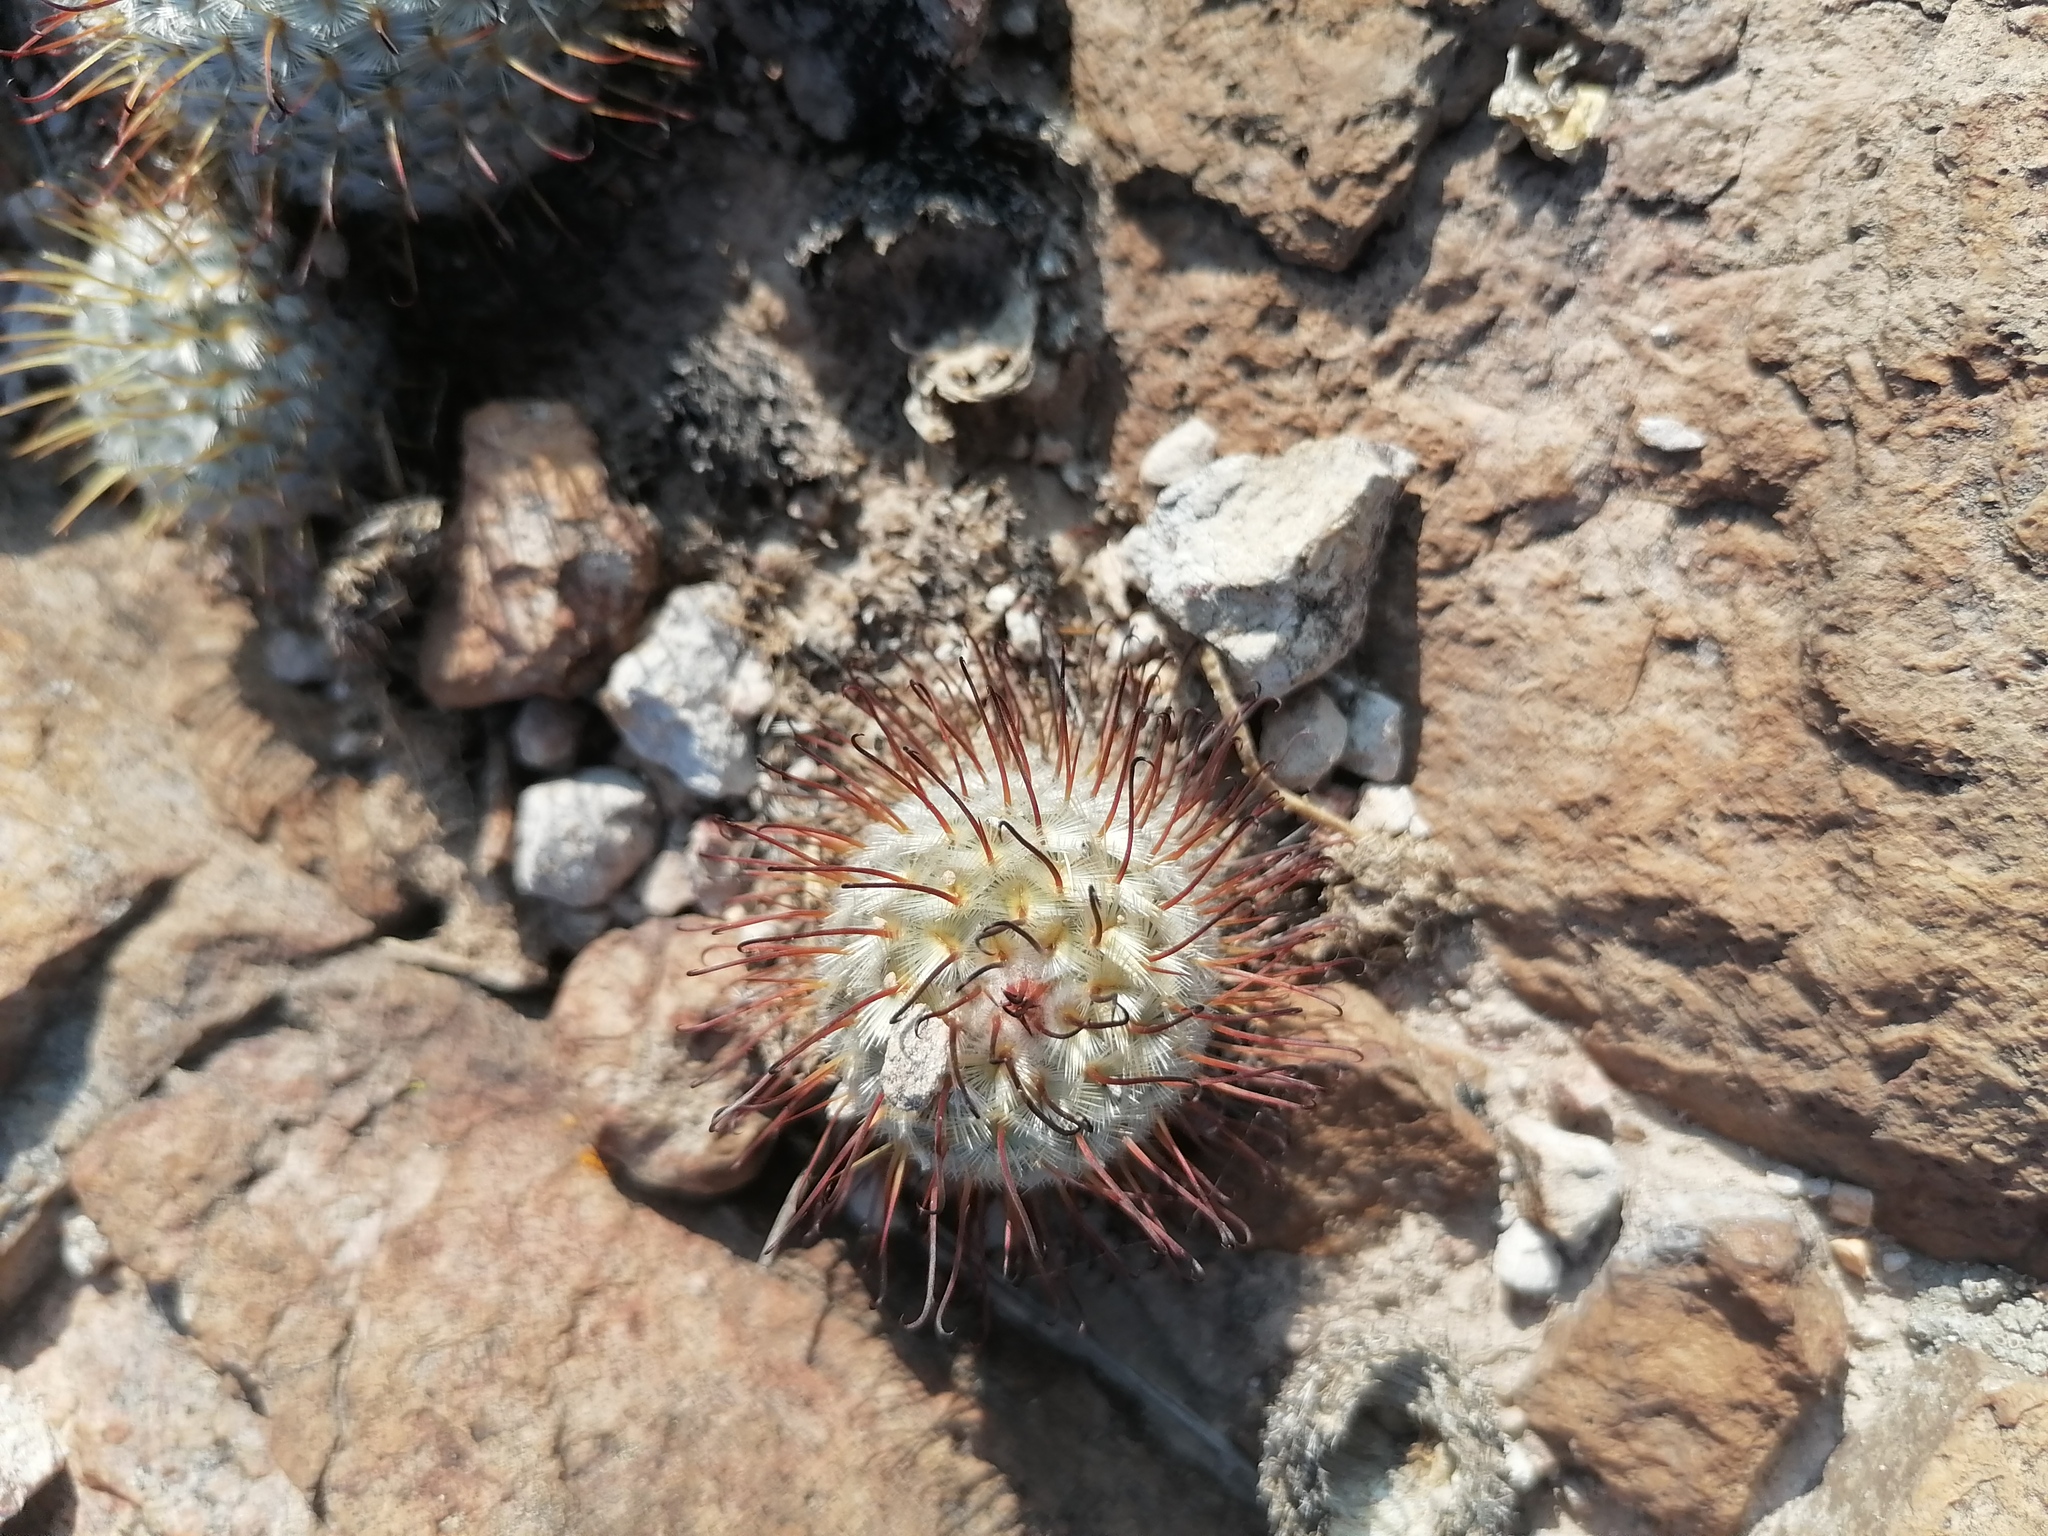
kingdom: Plantae
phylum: Tracheophyta
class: Magnoliopsida
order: Caryophyllales
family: Cactaceae
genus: Mammillaria
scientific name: Mammillaria bombycina
